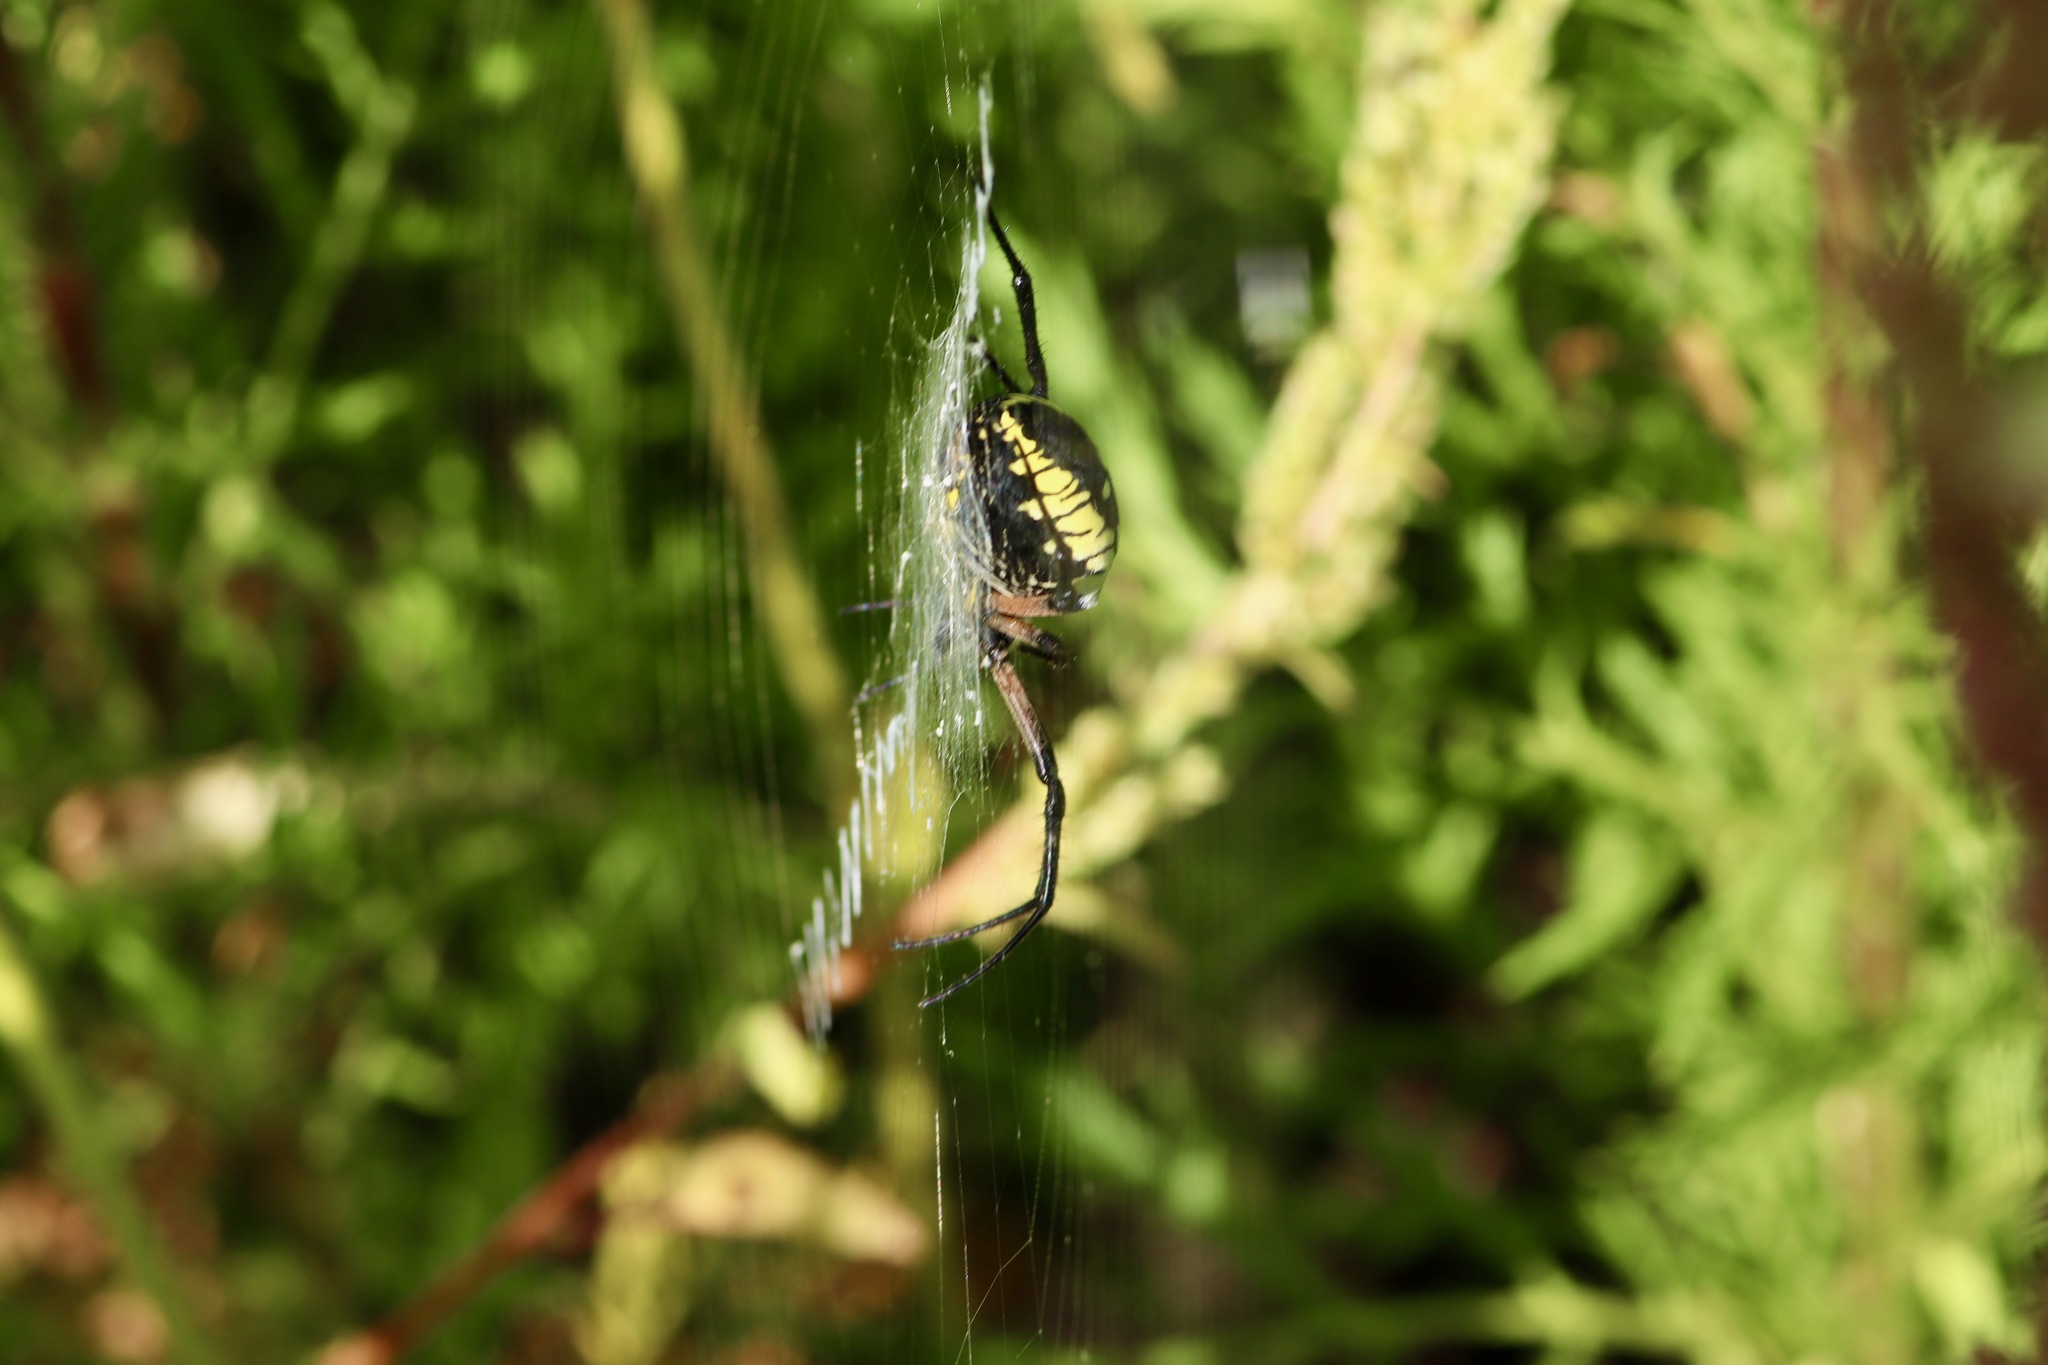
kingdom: Animalia
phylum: Arthropoda
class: Arachnida
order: Araneae
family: Araneidae
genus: Argiope
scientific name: Argiope aurantia
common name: Orb weavers
